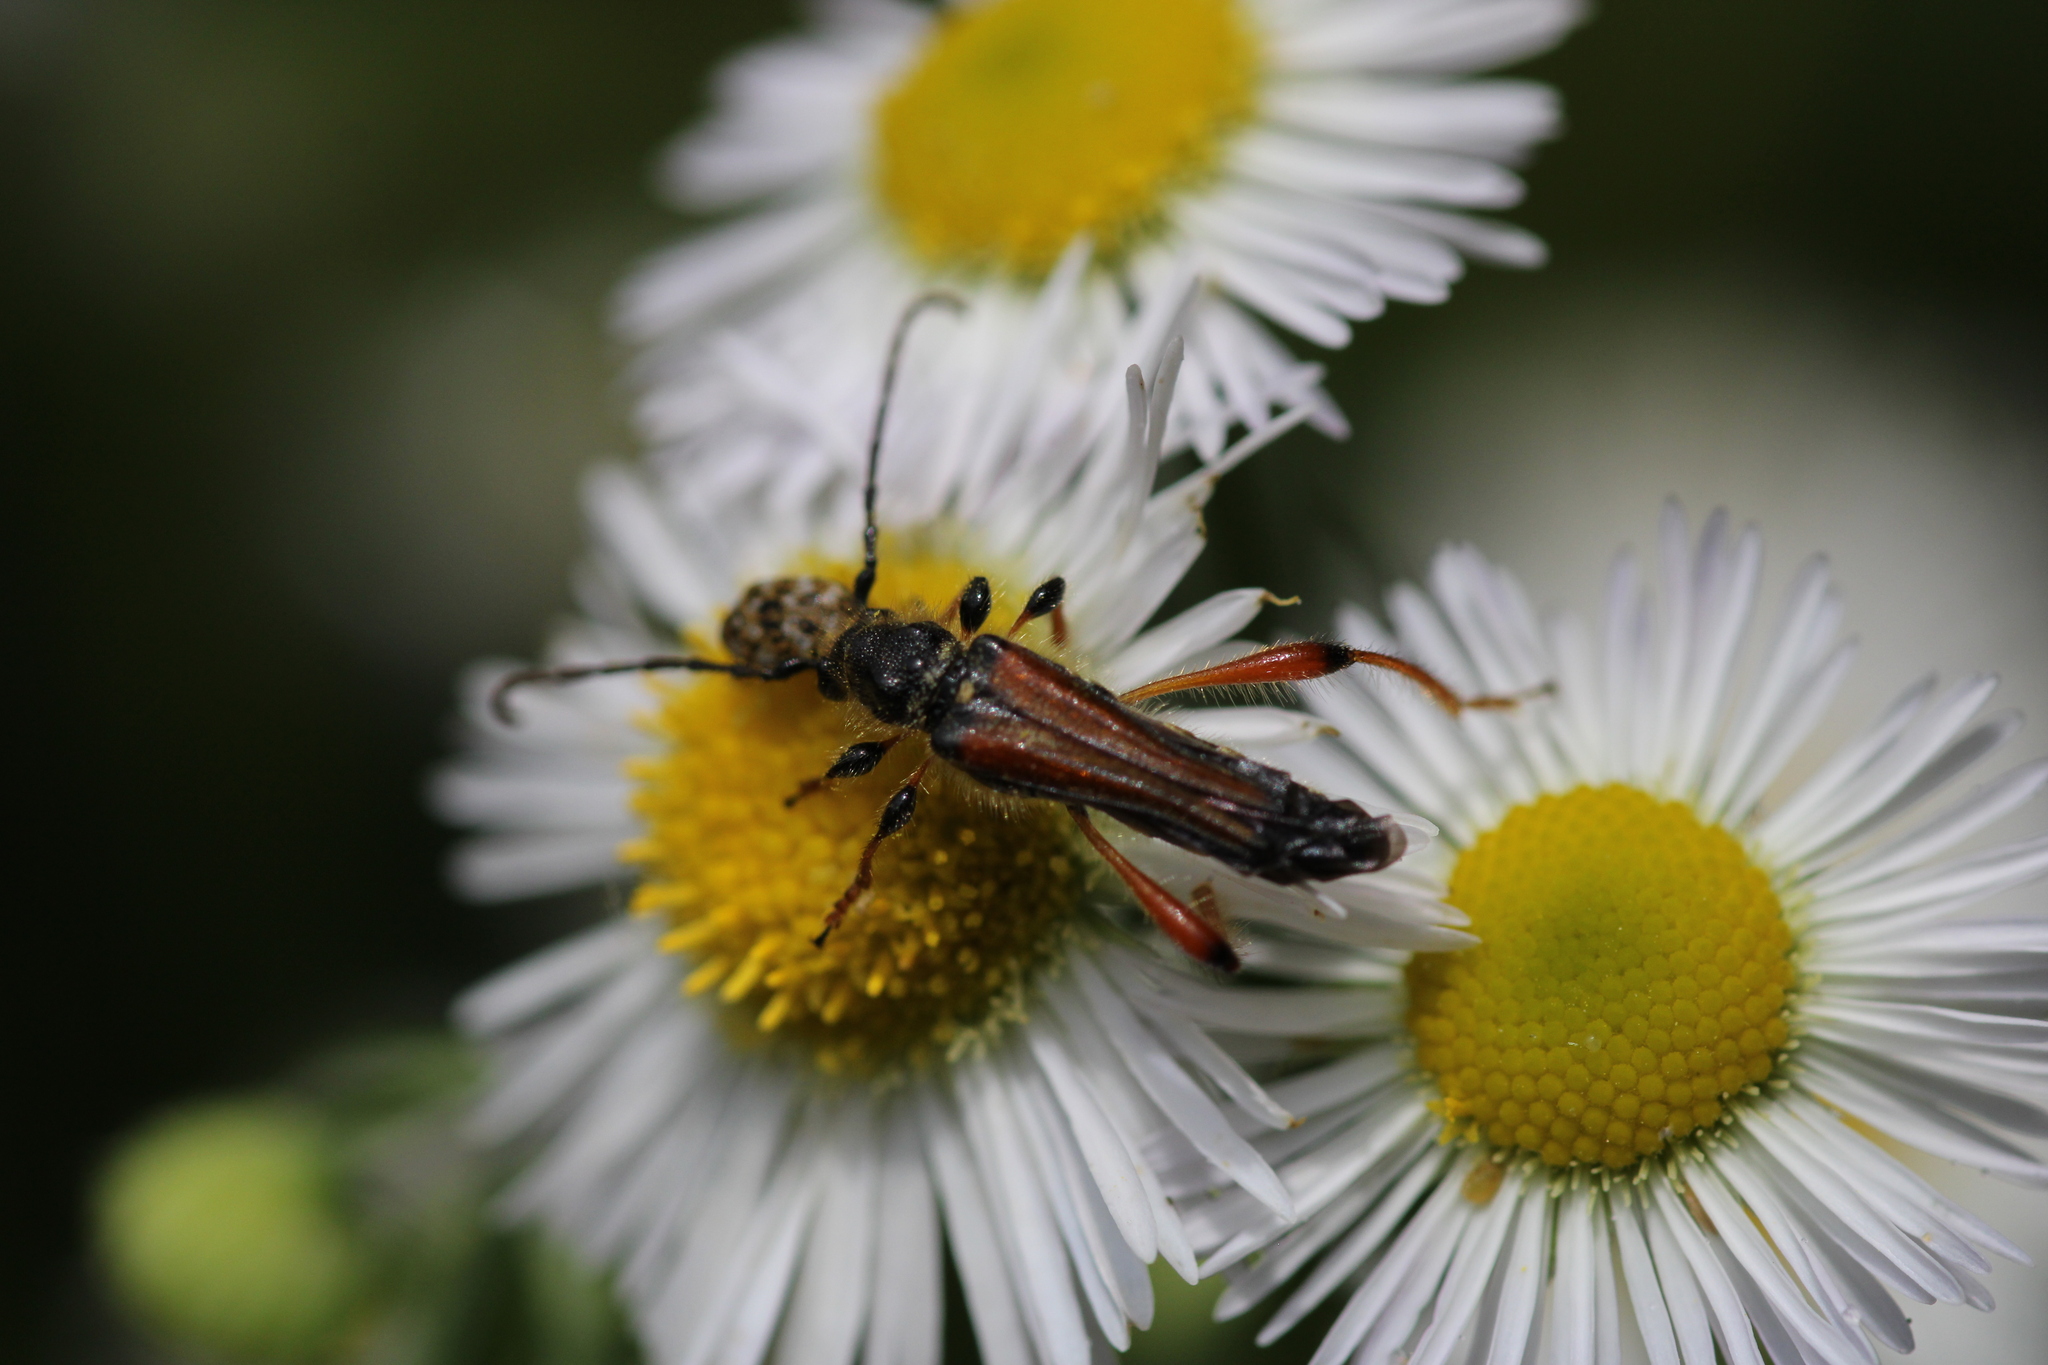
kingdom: Animalia
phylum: Arthropoda
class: Insecta
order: Coleoptera
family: Cerambycidae
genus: Stenopterus
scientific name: Stenopterus rufus
